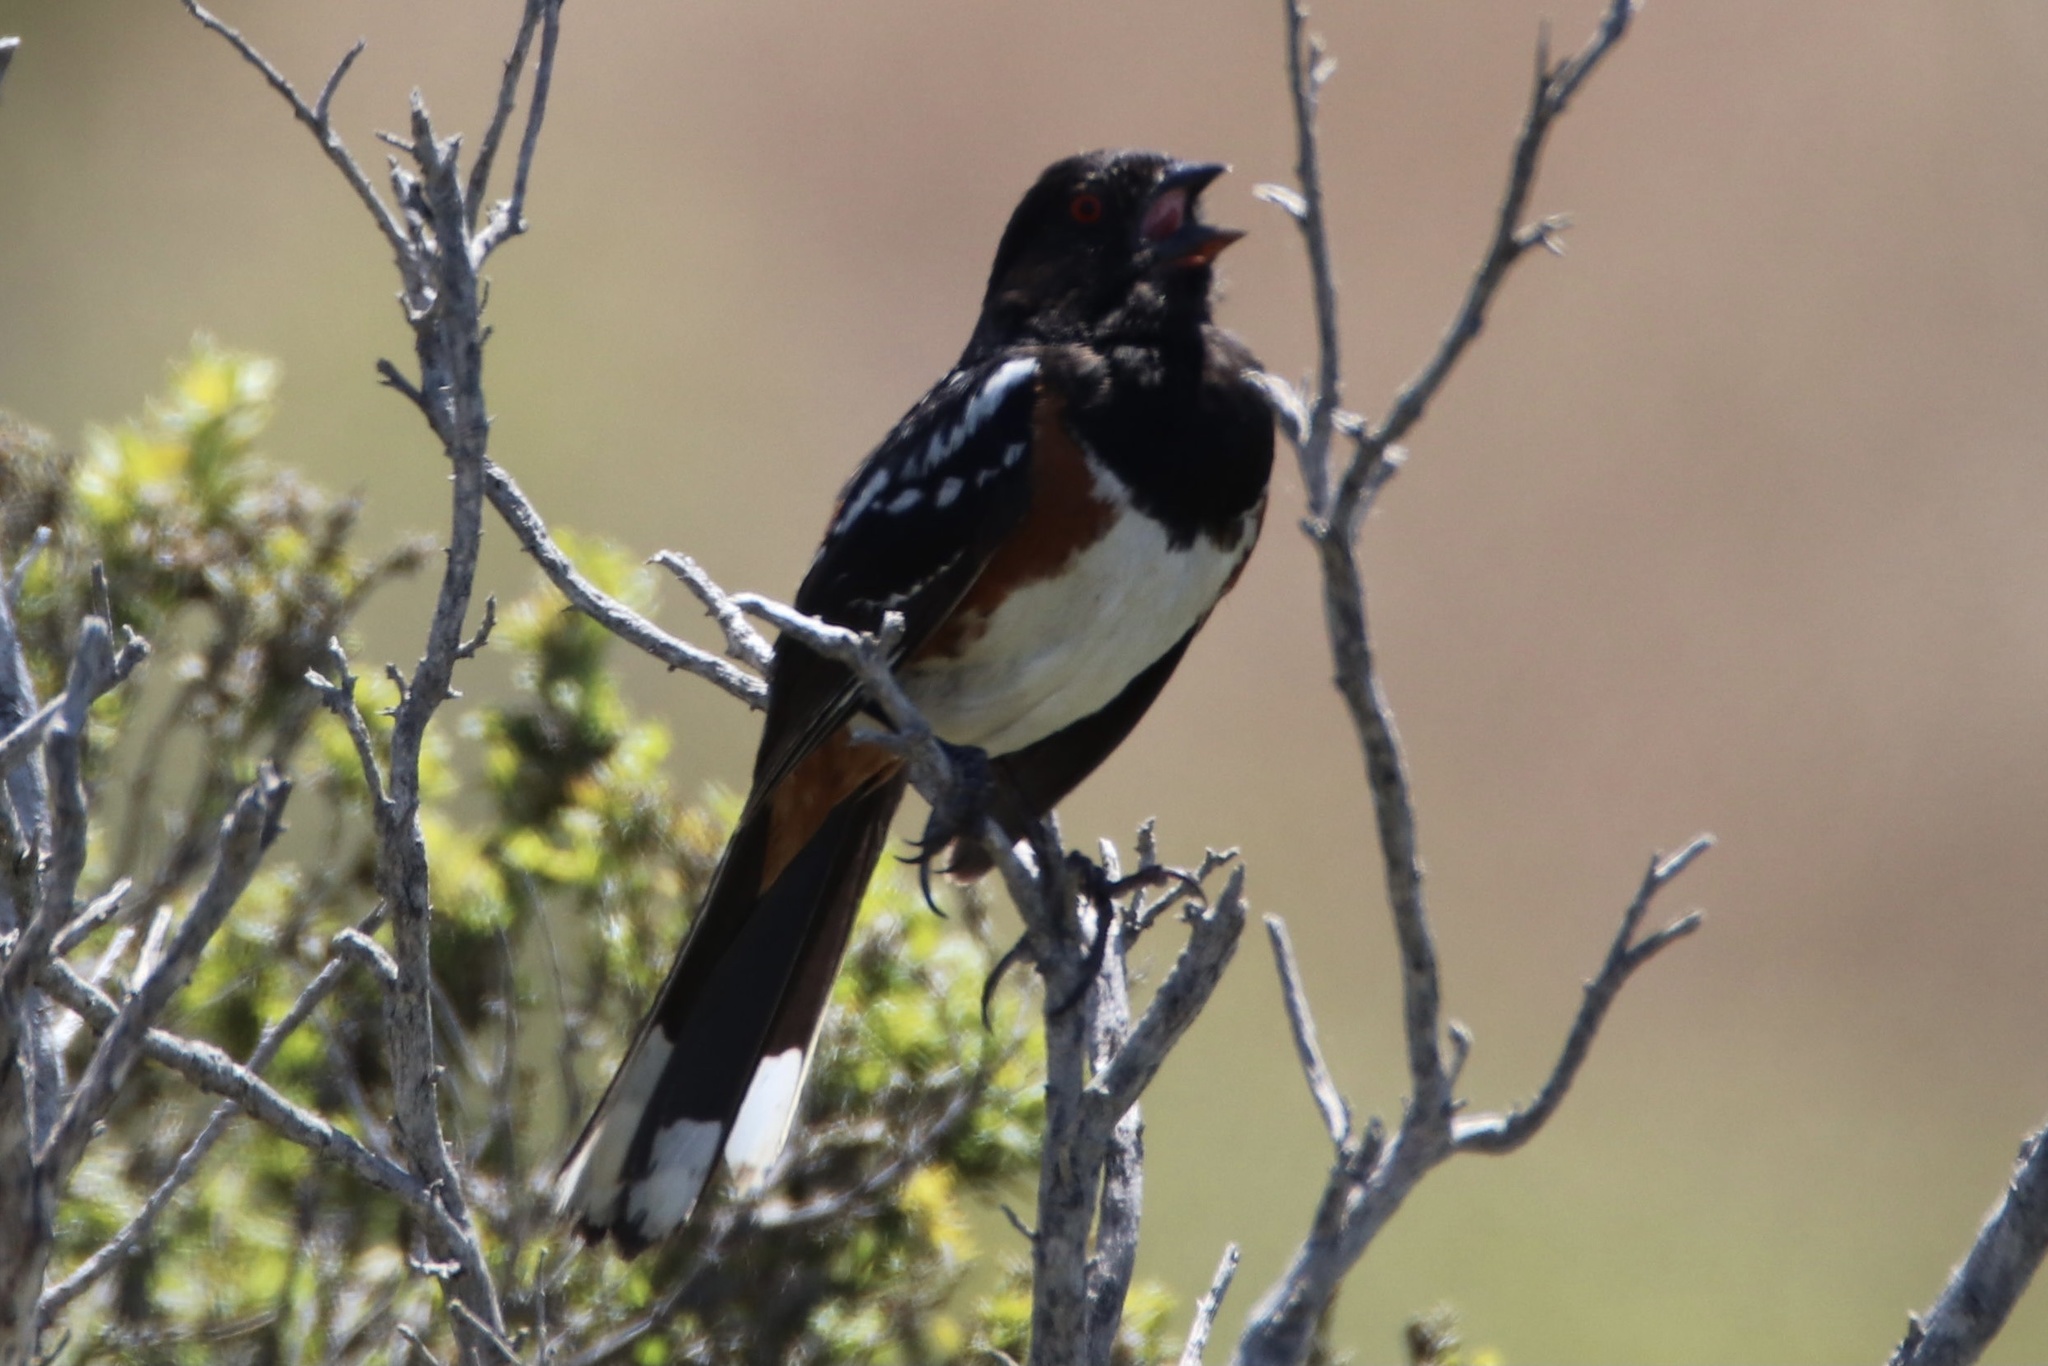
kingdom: Animalia
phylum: Chordata
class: Aves
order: Passeriformes
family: Passerellidae
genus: Pipilo
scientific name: Pipilo maculatus
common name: Spotted towhee
